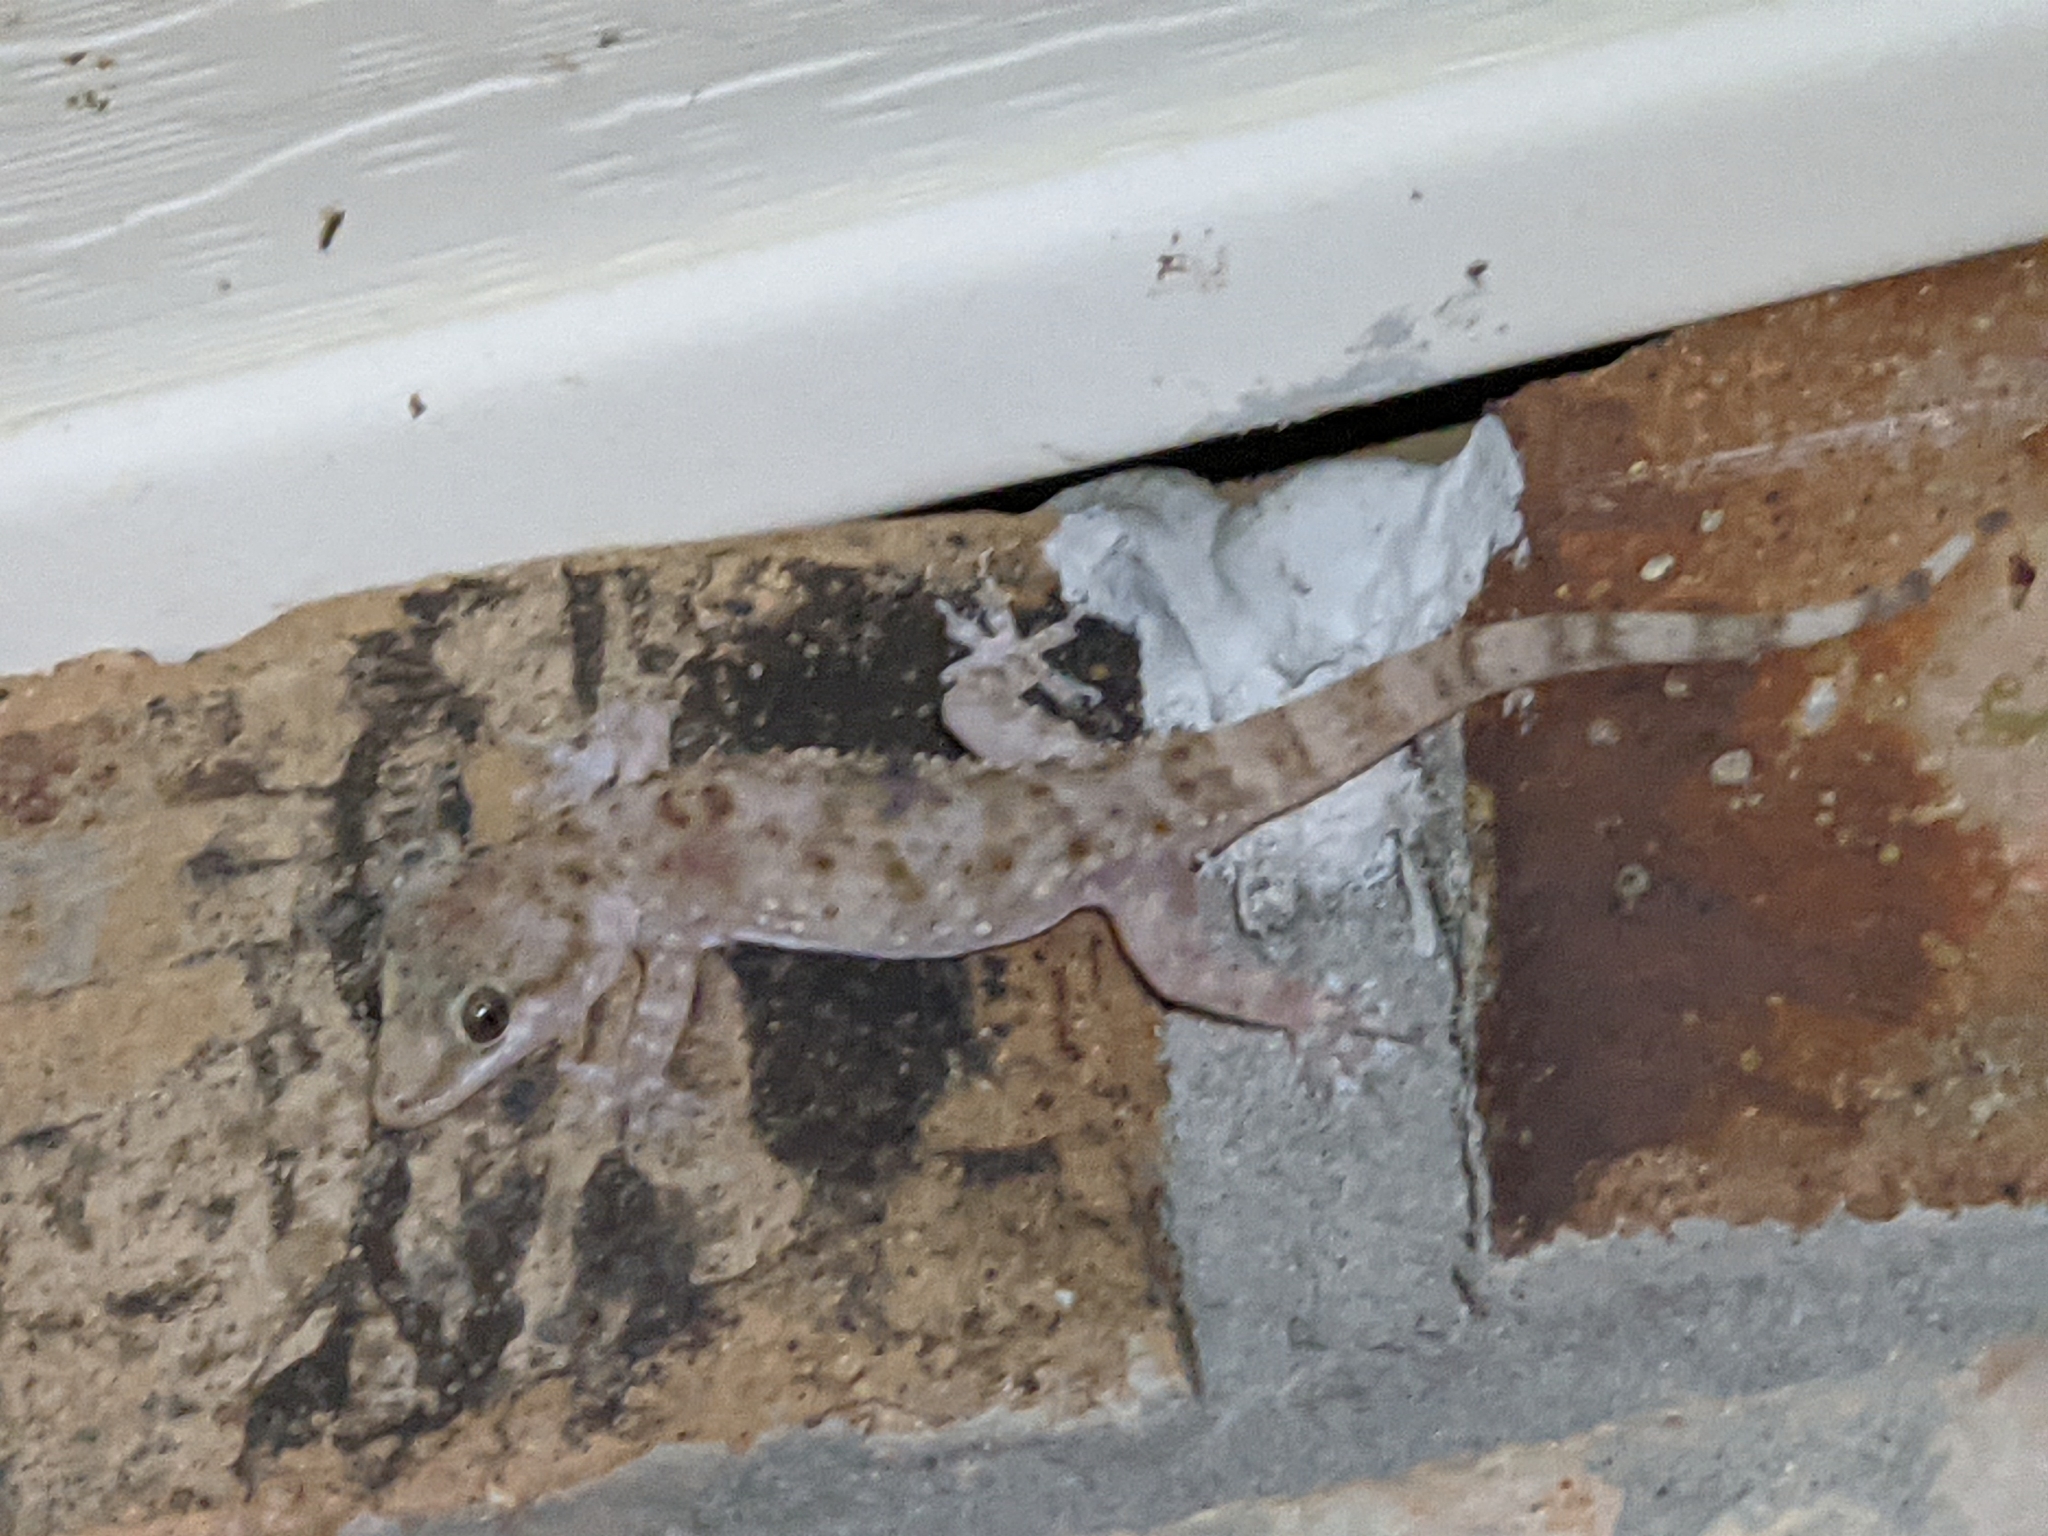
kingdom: Animalia
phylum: Chordata
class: Squamata
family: Gekkonidae
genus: Hemidactylus
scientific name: Hemidactylus turcicus
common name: Turkish gecko
